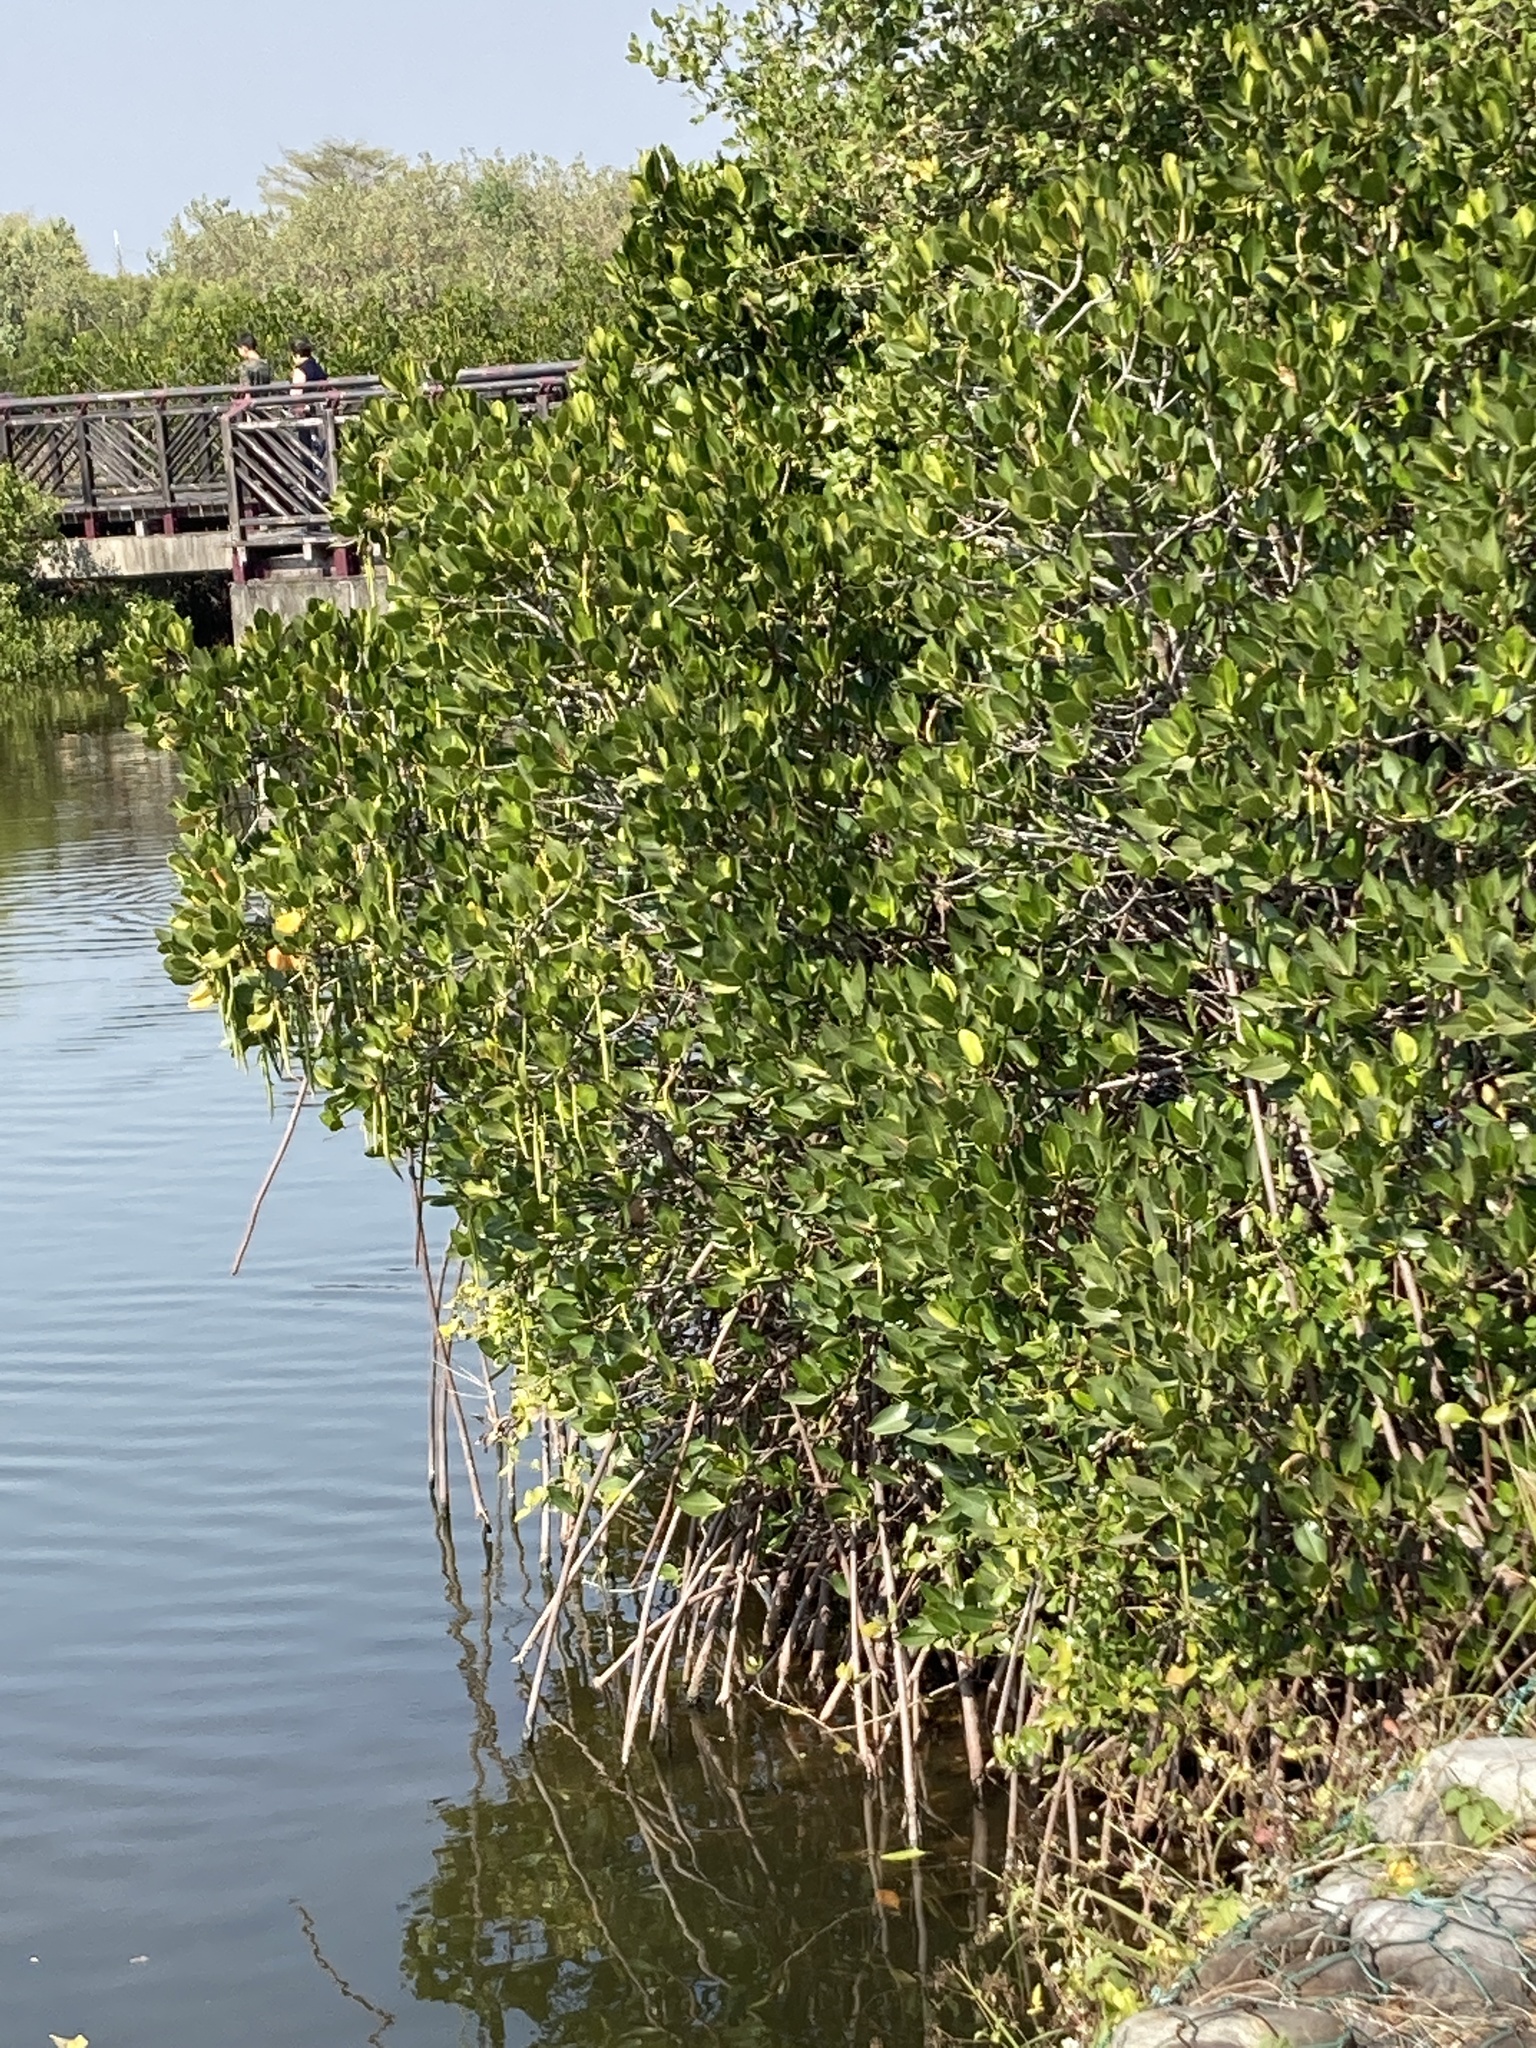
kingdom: Plantae
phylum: Tracheophyta
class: Magnoliopsida
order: Malpighiales
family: Rhizophoraceae
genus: Rhizophora
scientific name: Rhizophora stylosa
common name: Red mangrove
